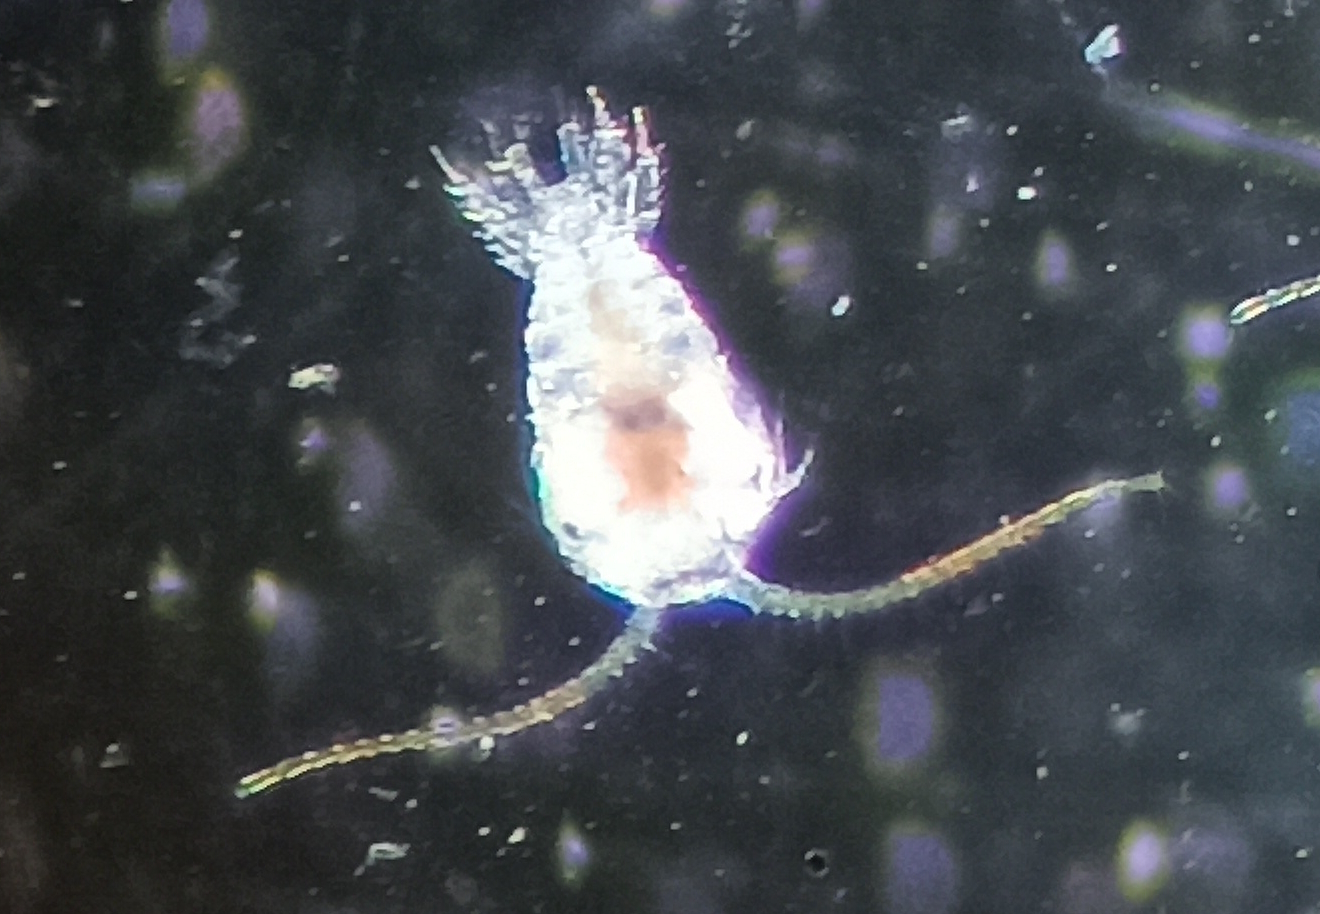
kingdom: Animalia
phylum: Arthropoda
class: Copepoda
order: Calanoida
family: Temoridae
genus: Temora
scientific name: Temora turbinata
